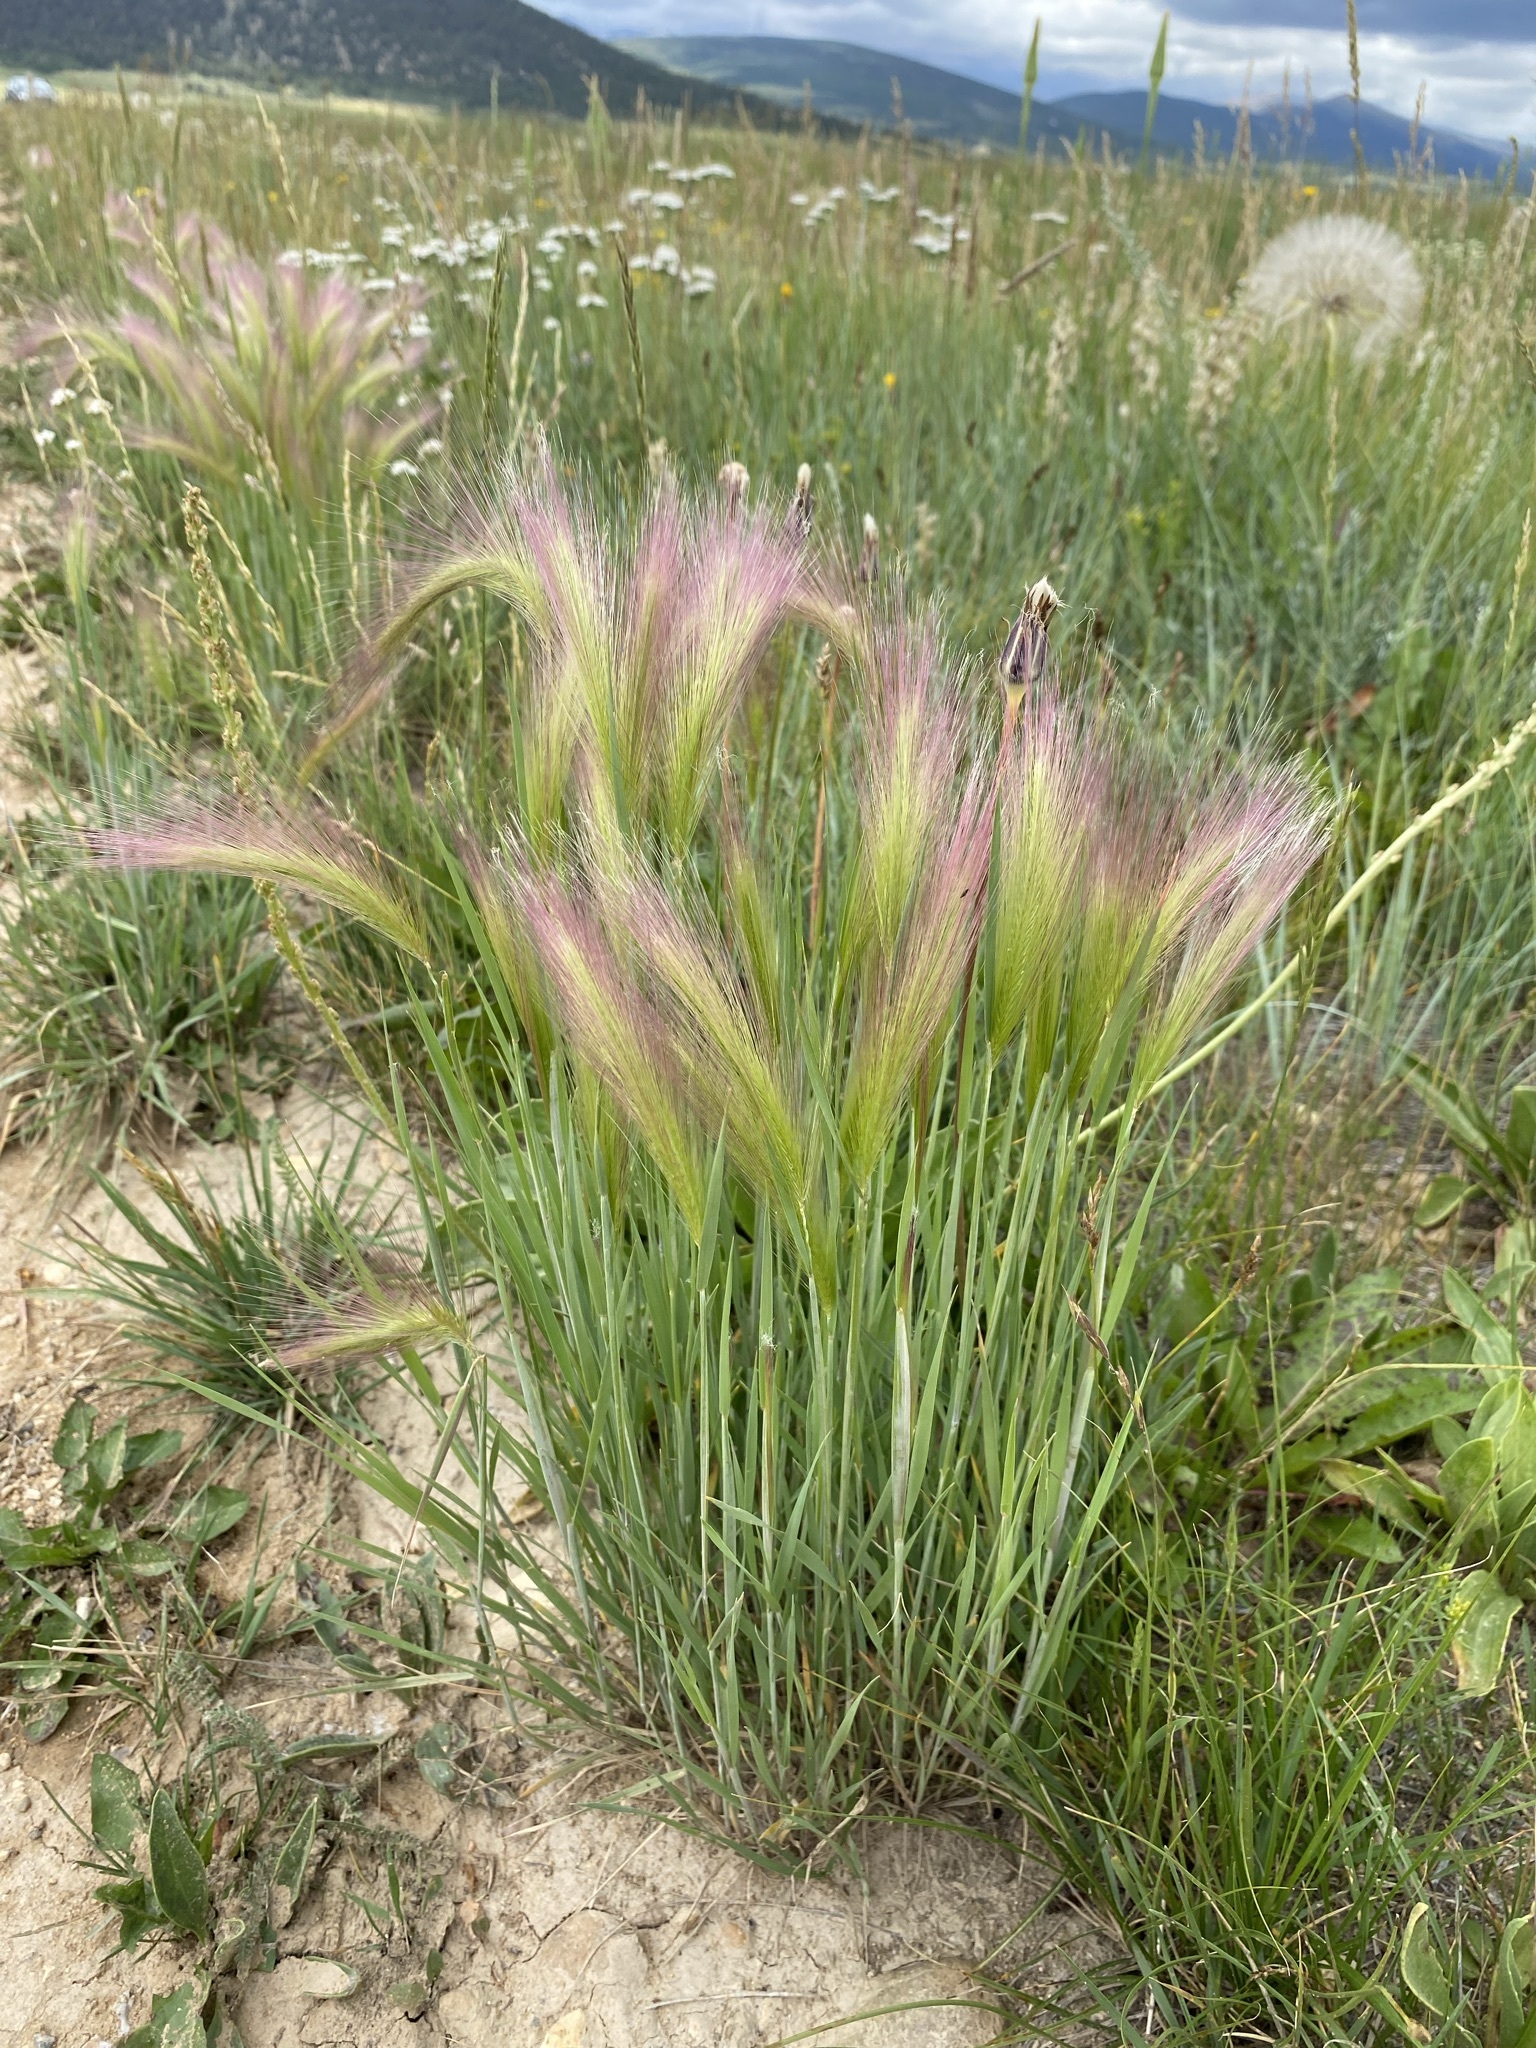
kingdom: Plantae
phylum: Tracheophyta
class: Liliopsida
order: Poales
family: Poaceae
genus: Hordeum
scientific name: Hordeum jubatum
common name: Foxtail barley
